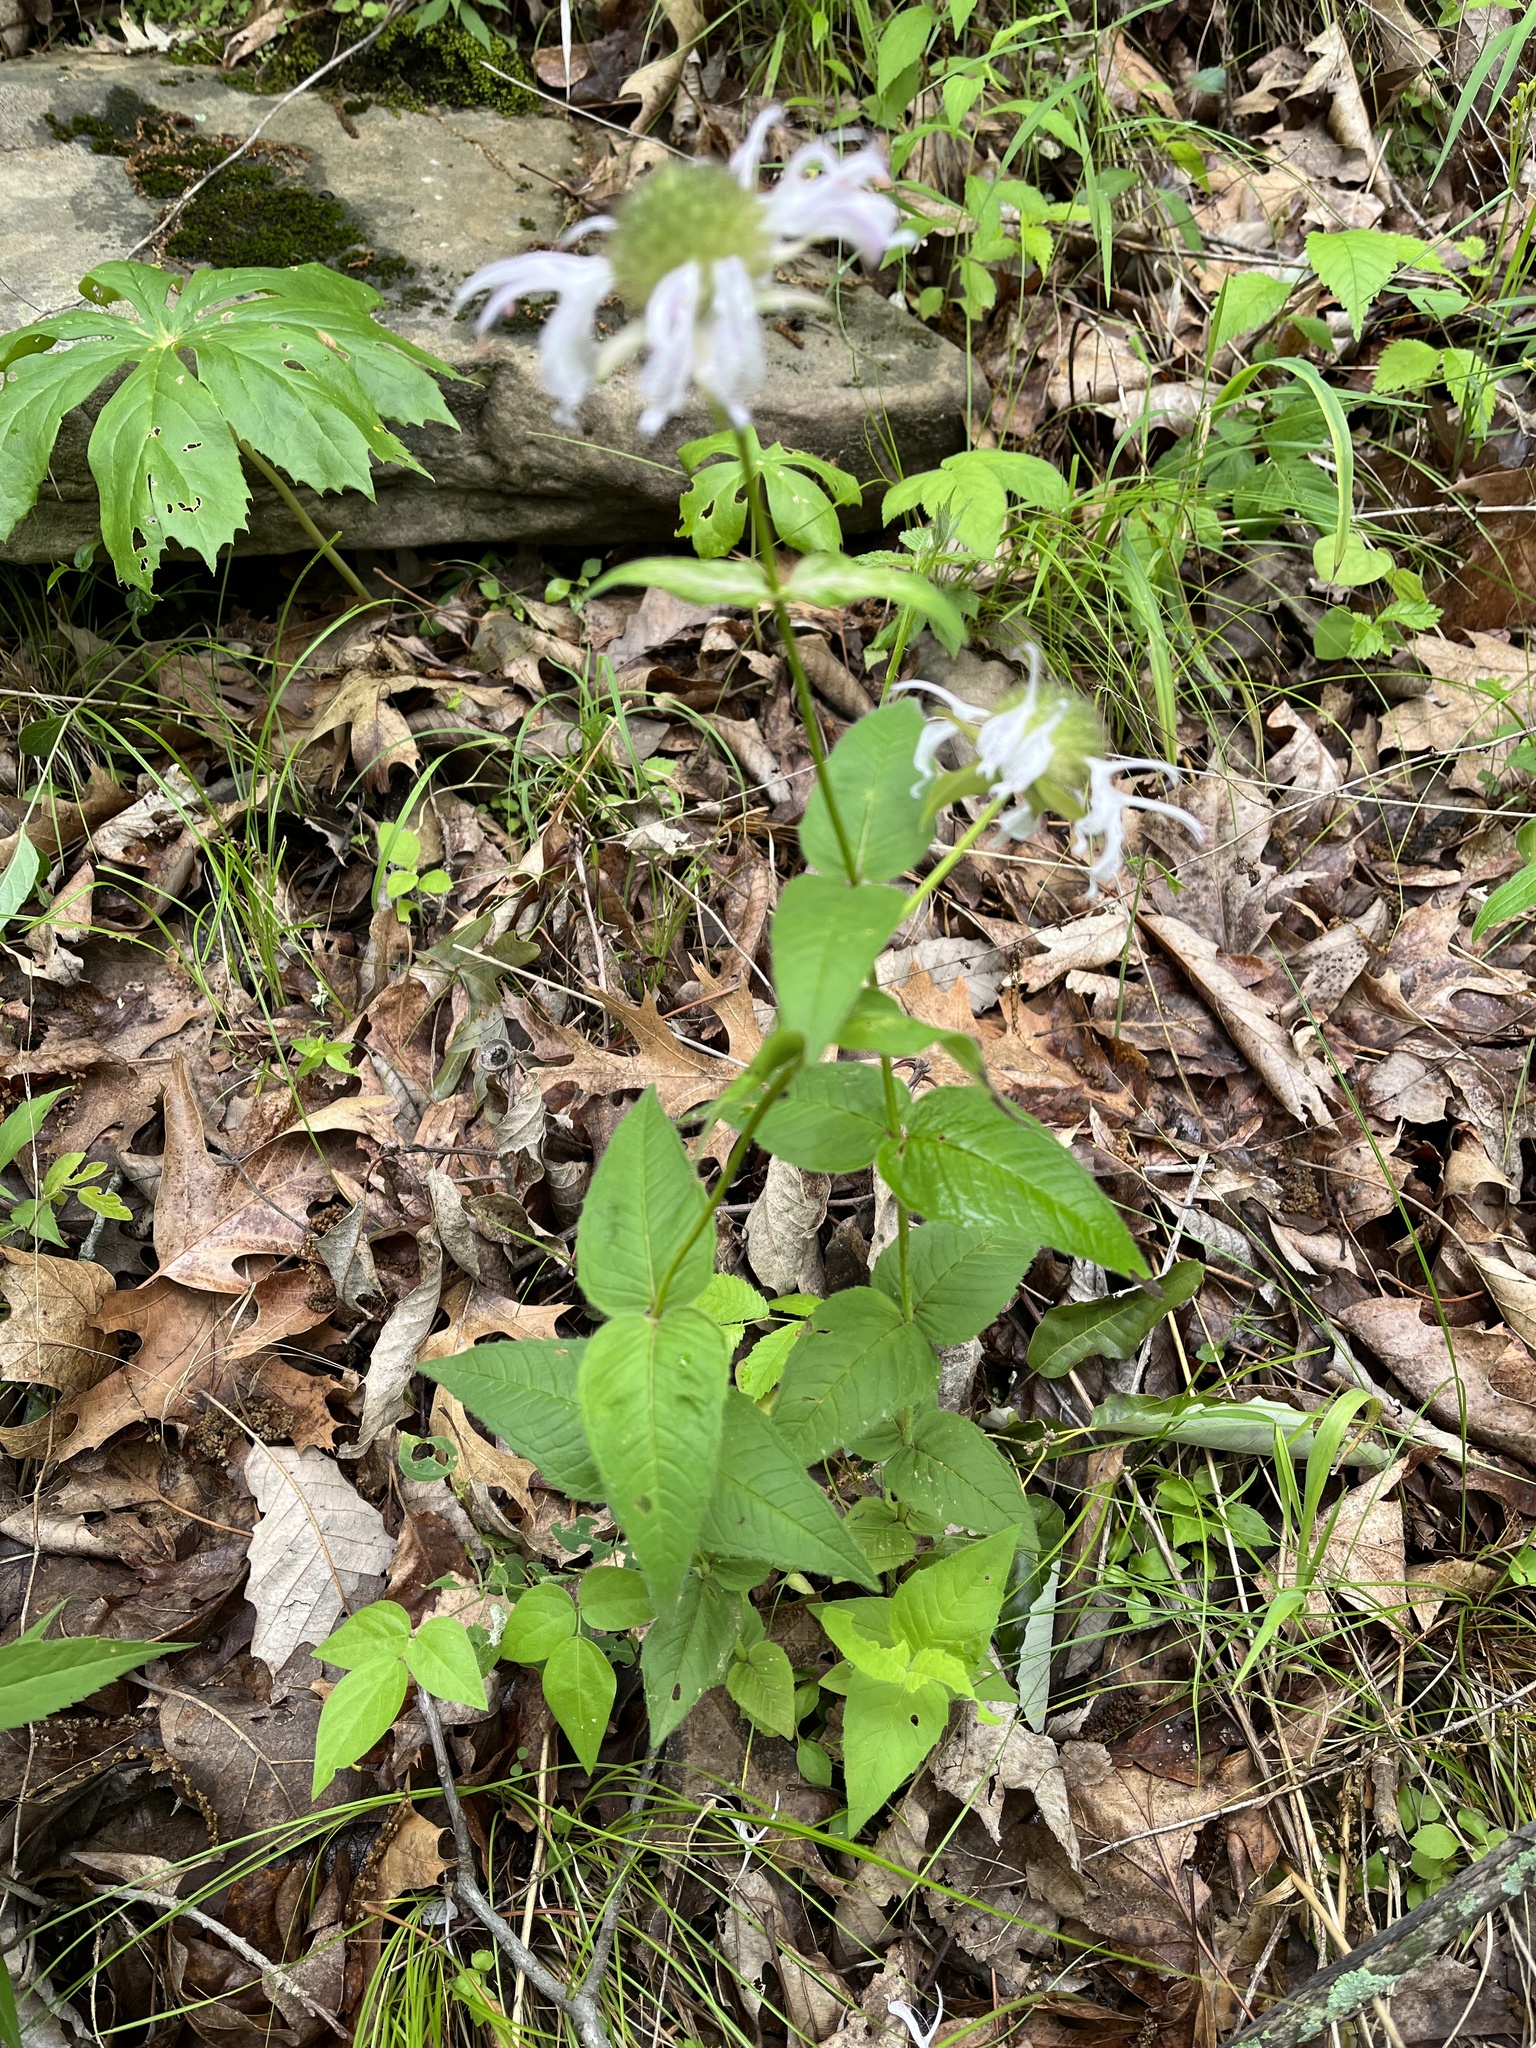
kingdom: Plantae
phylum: Tracheophyta
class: Magnoliopsida
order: Lamiales
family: Lamiaceae
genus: Monarda
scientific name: Monarda bradburiana
